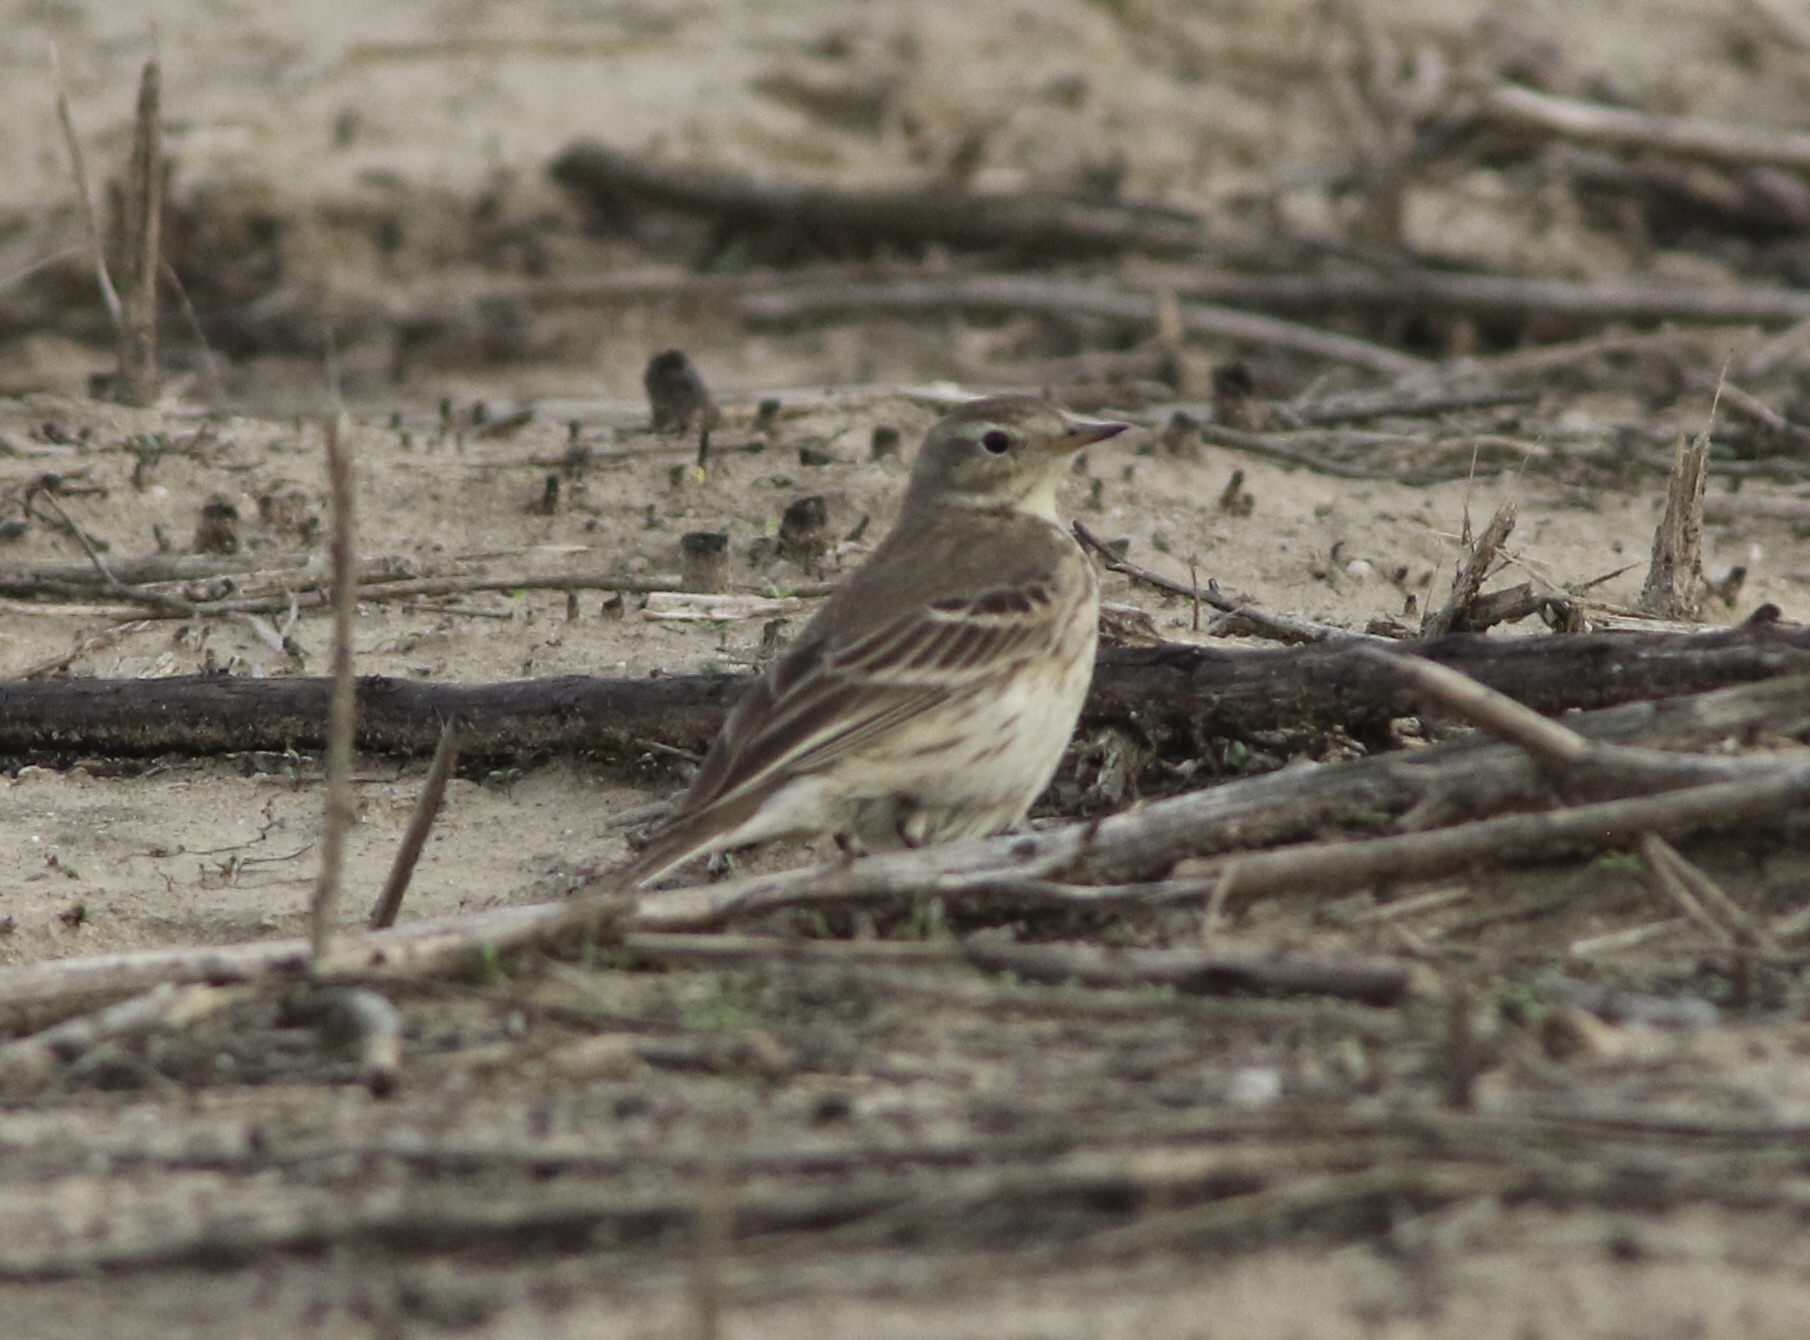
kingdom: Animalia
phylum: Chordata
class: Aves
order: Passeriformes
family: Motacillidae
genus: Anthus
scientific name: Anthus rubescens
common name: Buff-bellied pipit
